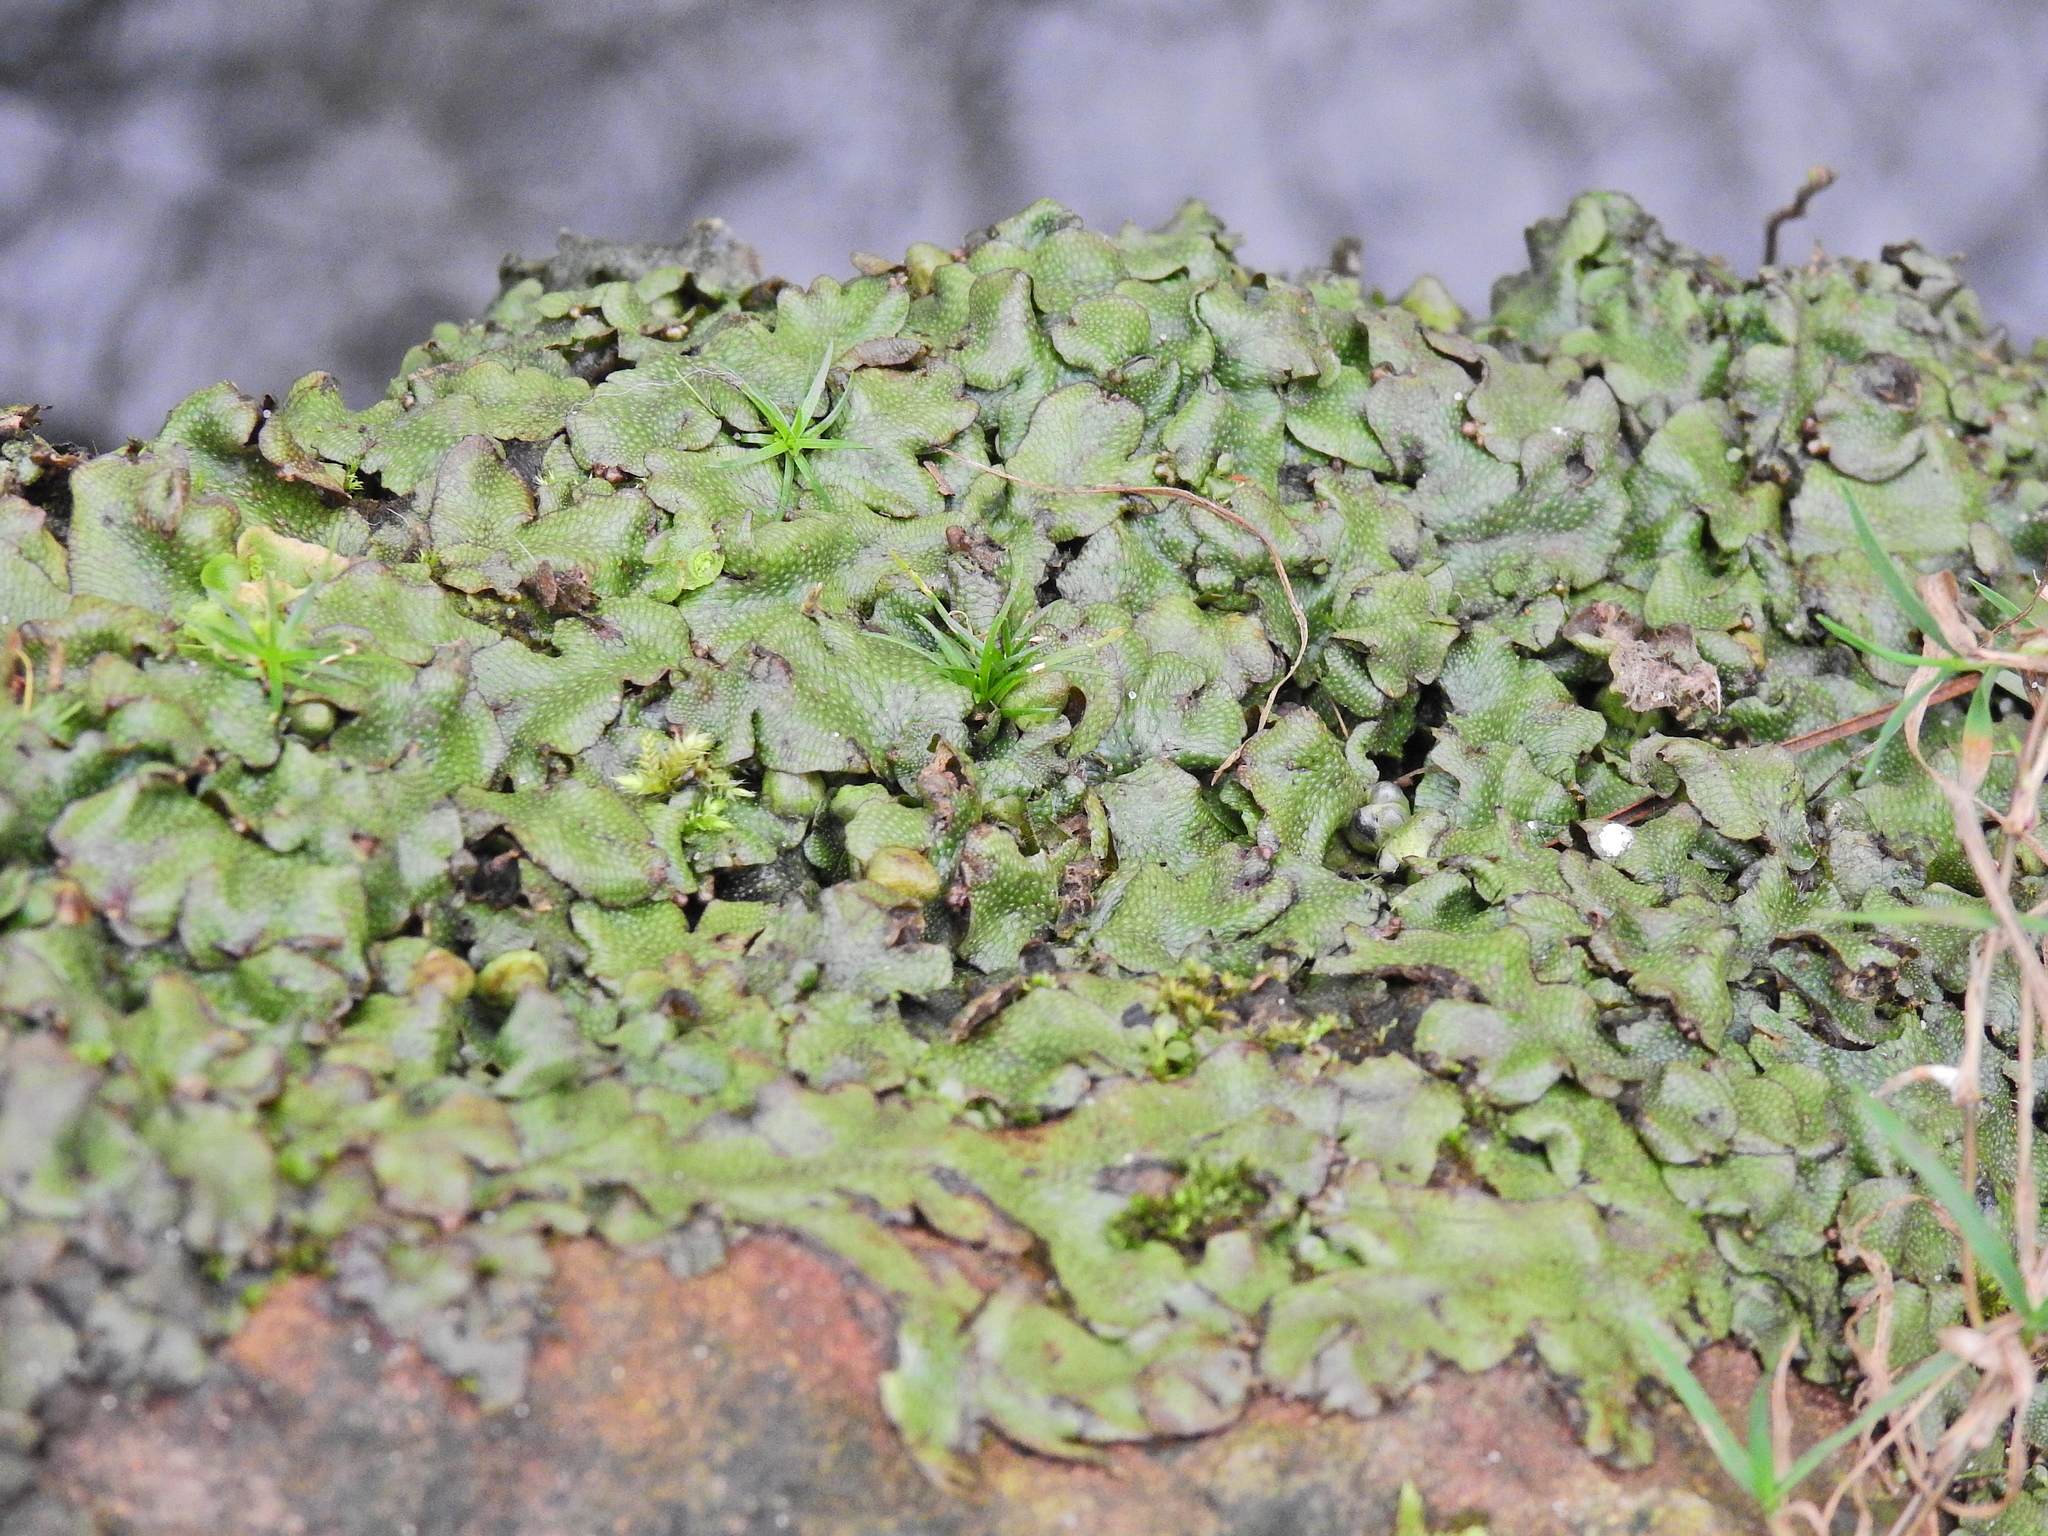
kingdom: Plantae
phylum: Marchantiophyta
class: Marchantiopsida
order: Marchantiales
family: Conocephalaceae
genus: Conocephalum
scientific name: Conocephalum conicum
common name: Great scented liverwort
